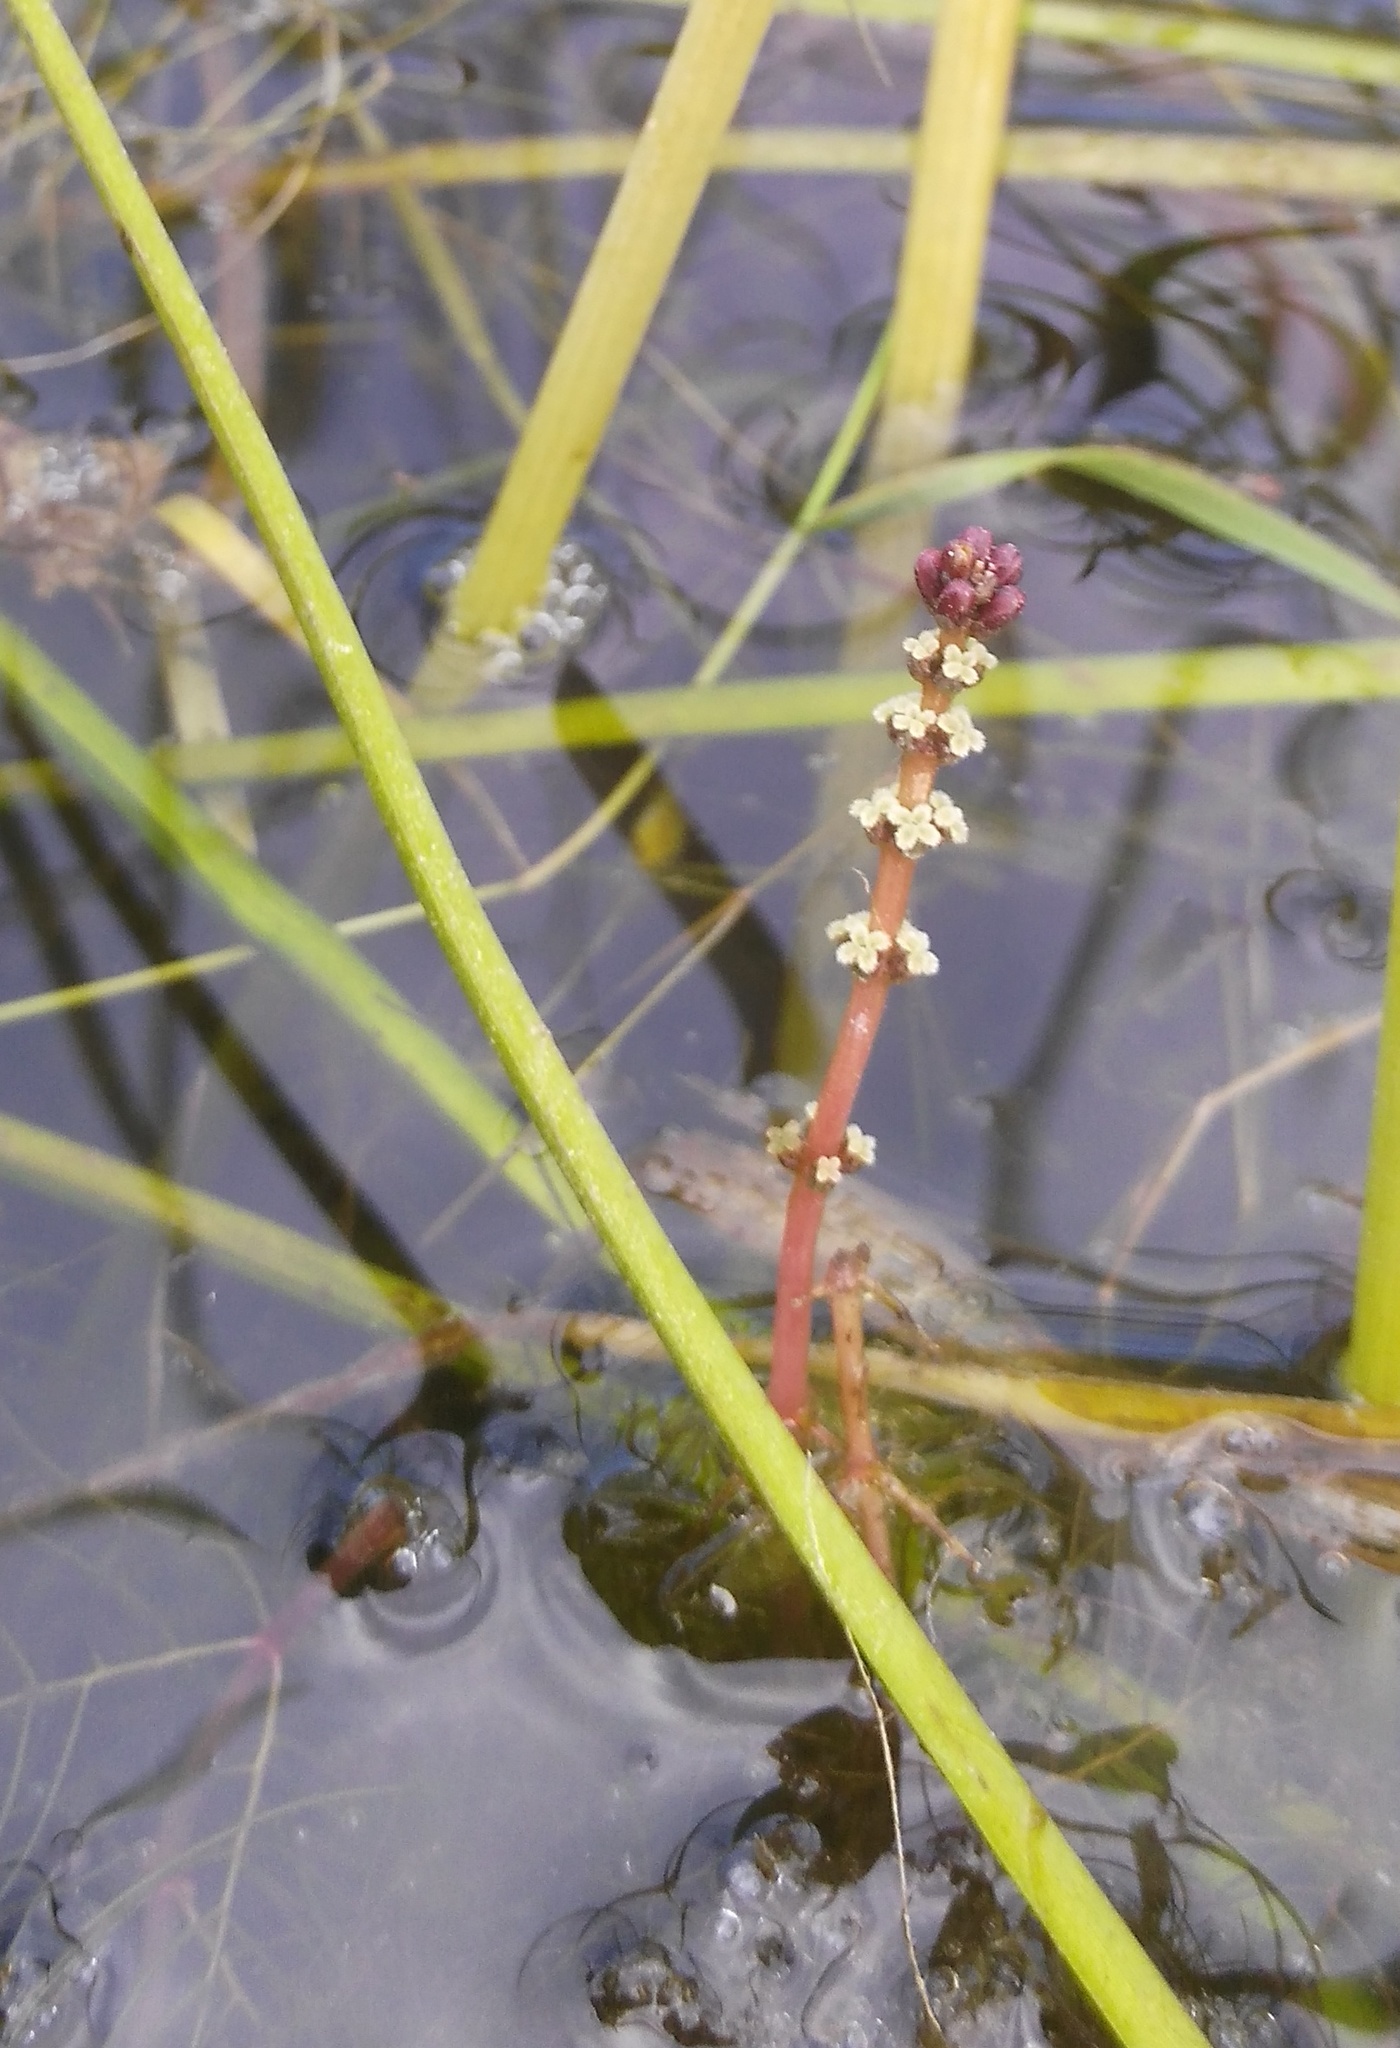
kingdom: Plantae
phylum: Tracheophyta
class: Magnoliopsida
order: Saxifragales
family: Haloragaceae
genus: Myriophyllum
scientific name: Myriophyllum sibiricum
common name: Siberian water-milfoil
